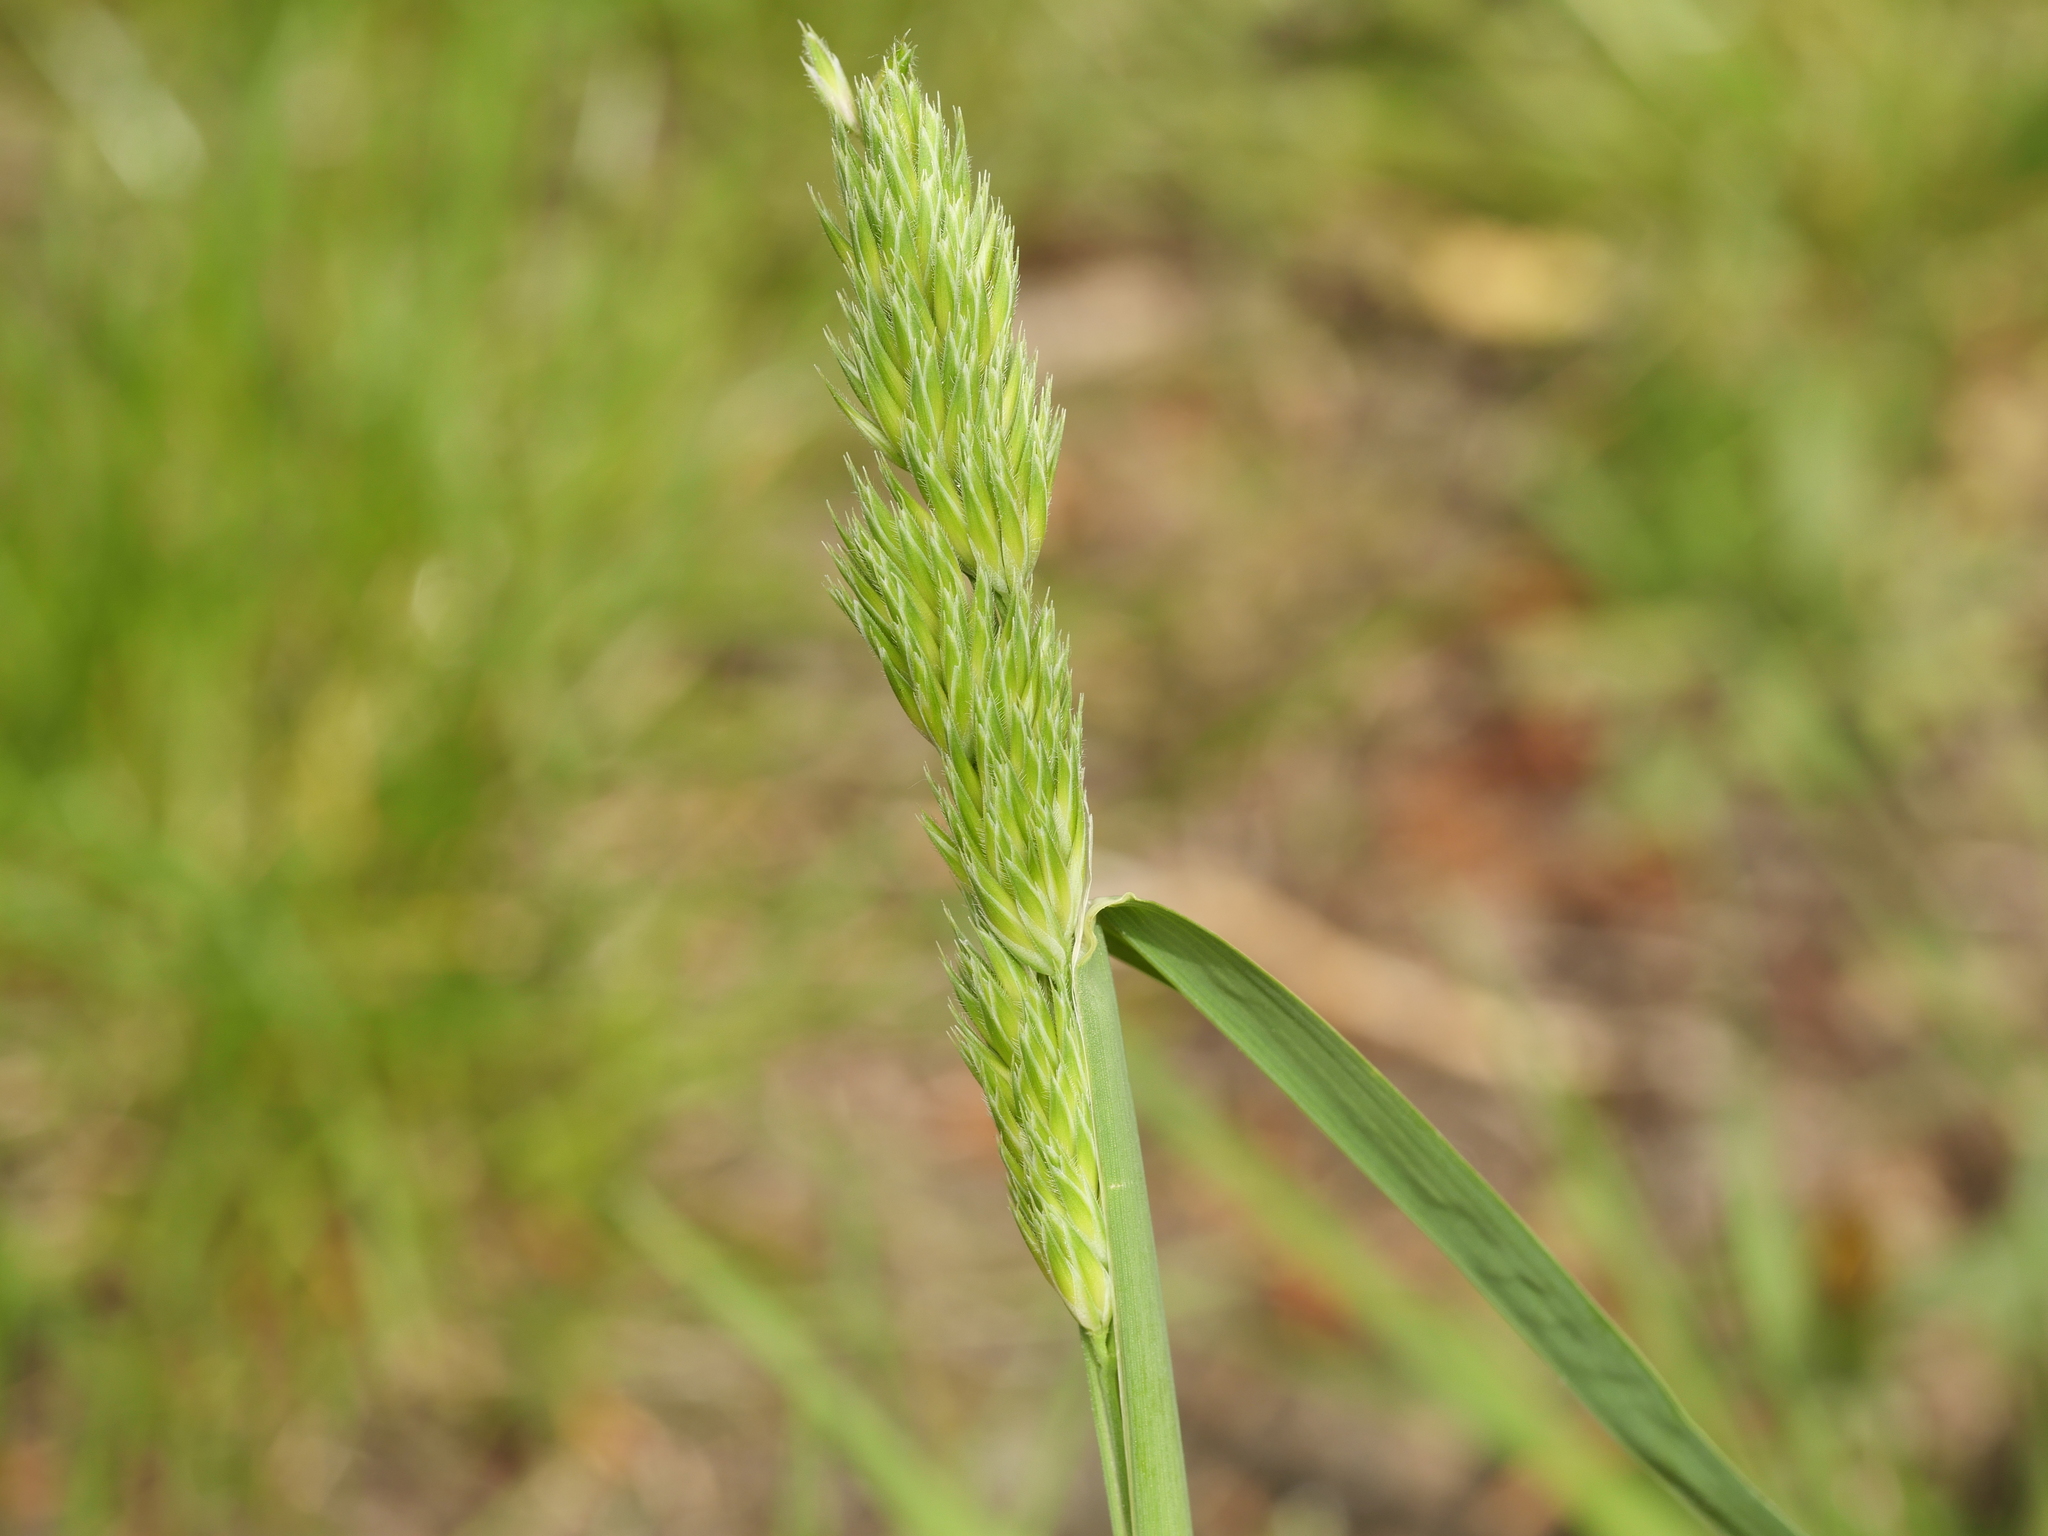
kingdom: Plantae
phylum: Tracheophyta
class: Liliopsida
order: Poales
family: Poaceae
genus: Dactylis
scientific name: Dactylis glomerata
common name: Orchardgrass
